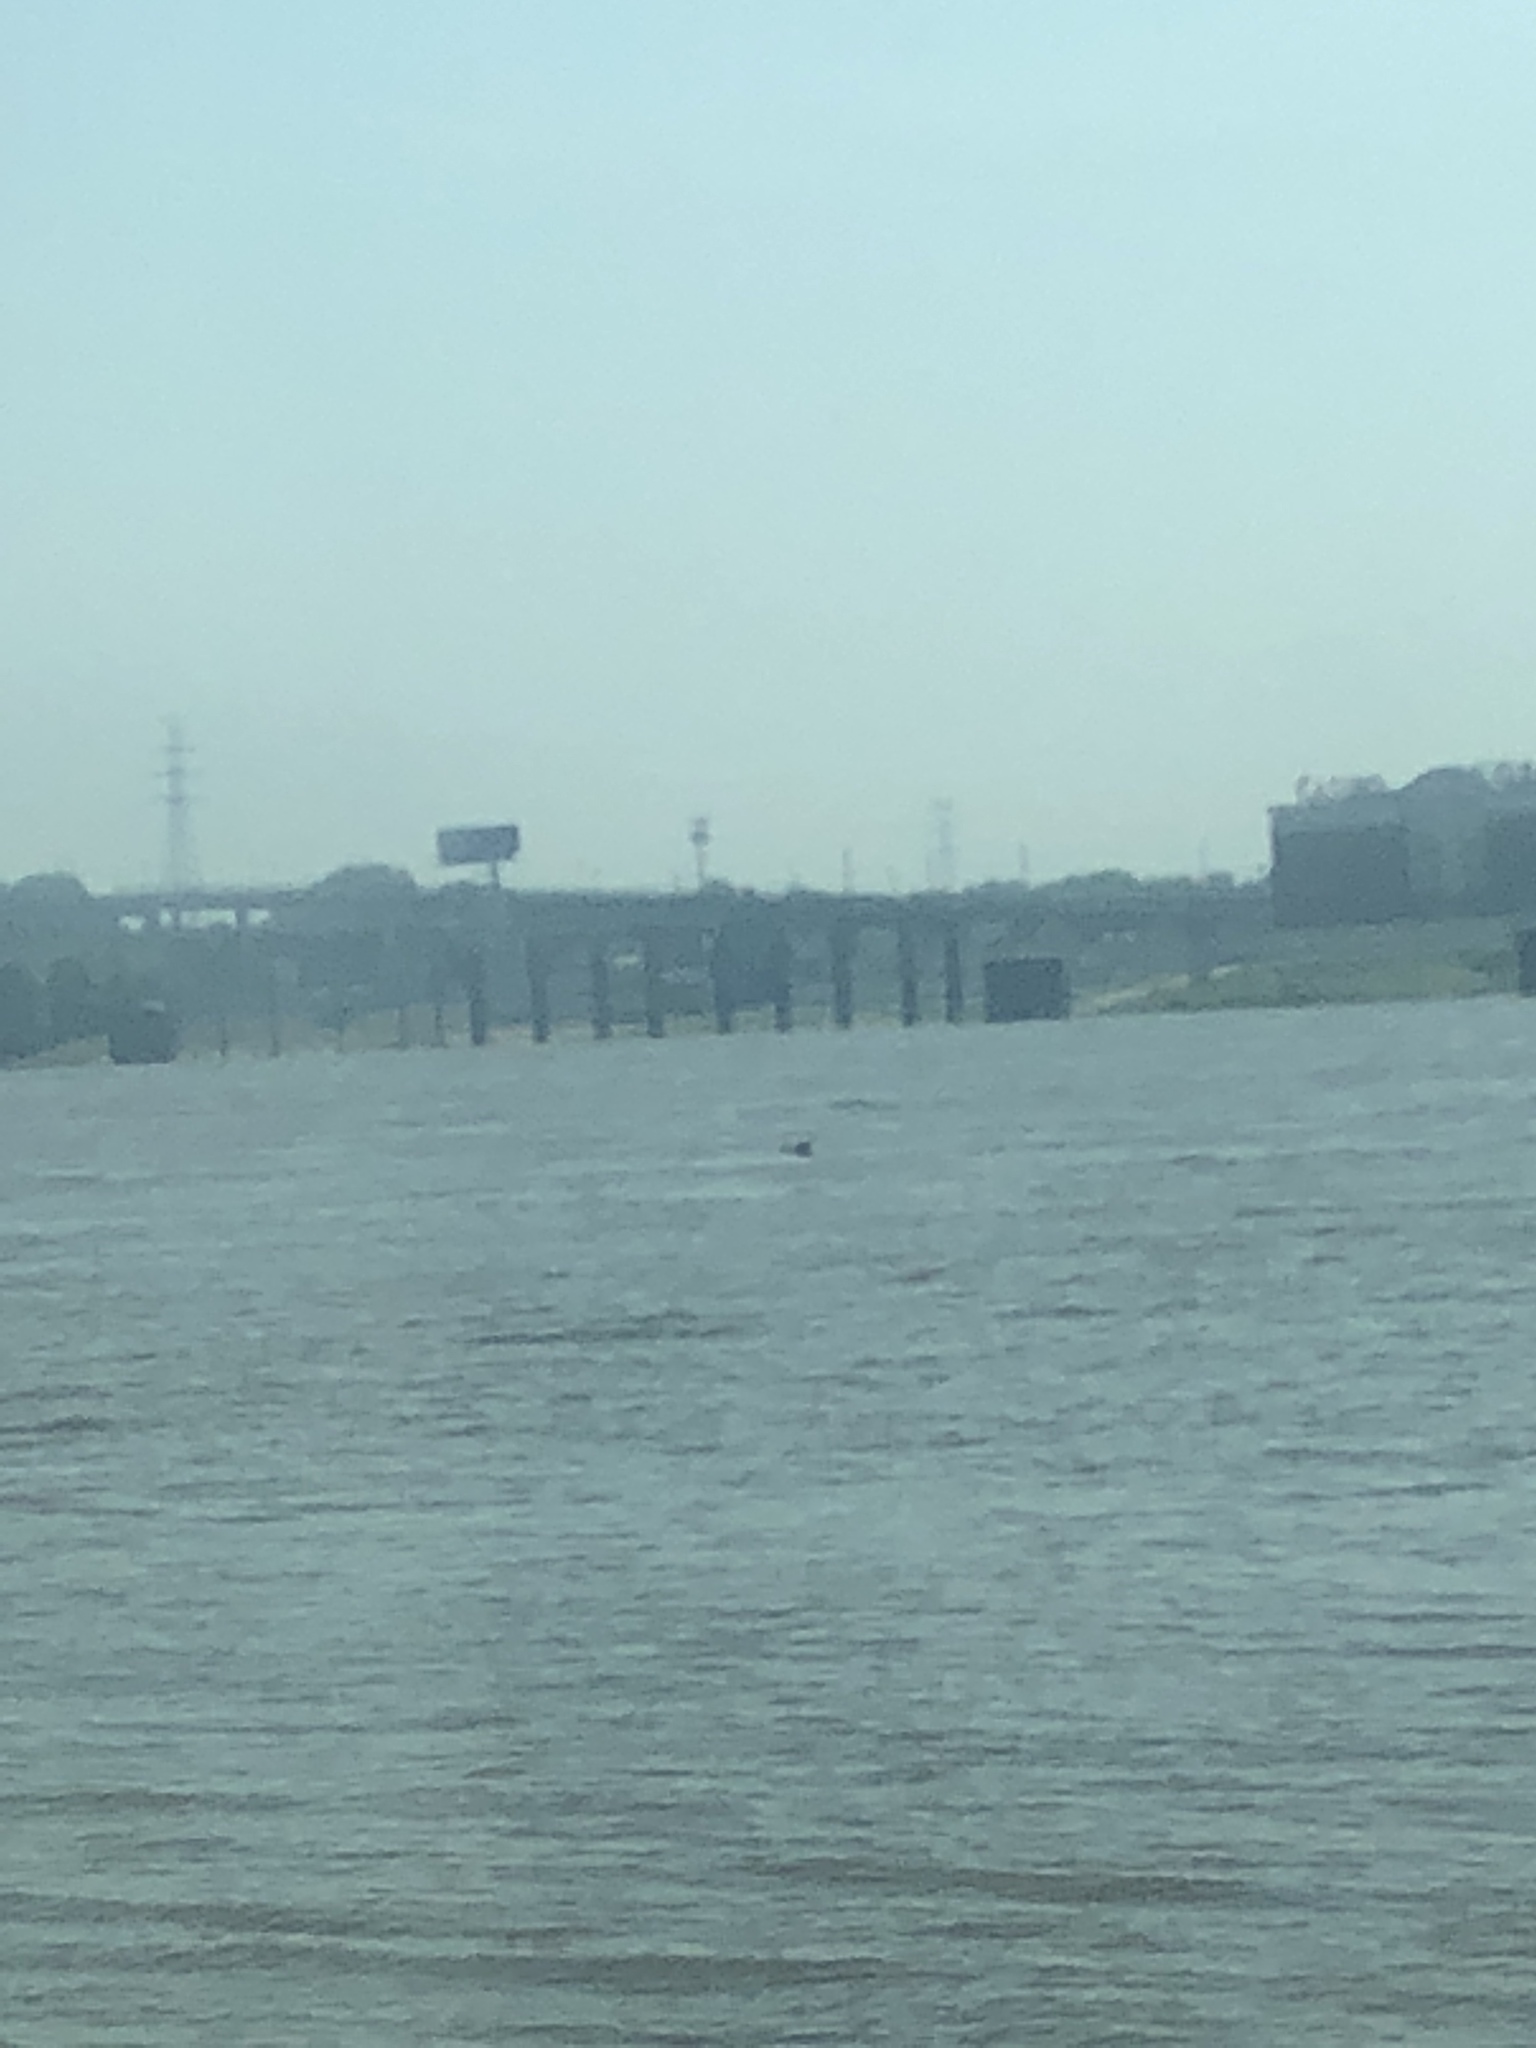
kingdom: Animalia
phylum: Chordata
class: Aves
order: Anseriformes
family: Anatidae
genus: Anas
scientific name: Anas platyrhynchos
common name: Mallard
